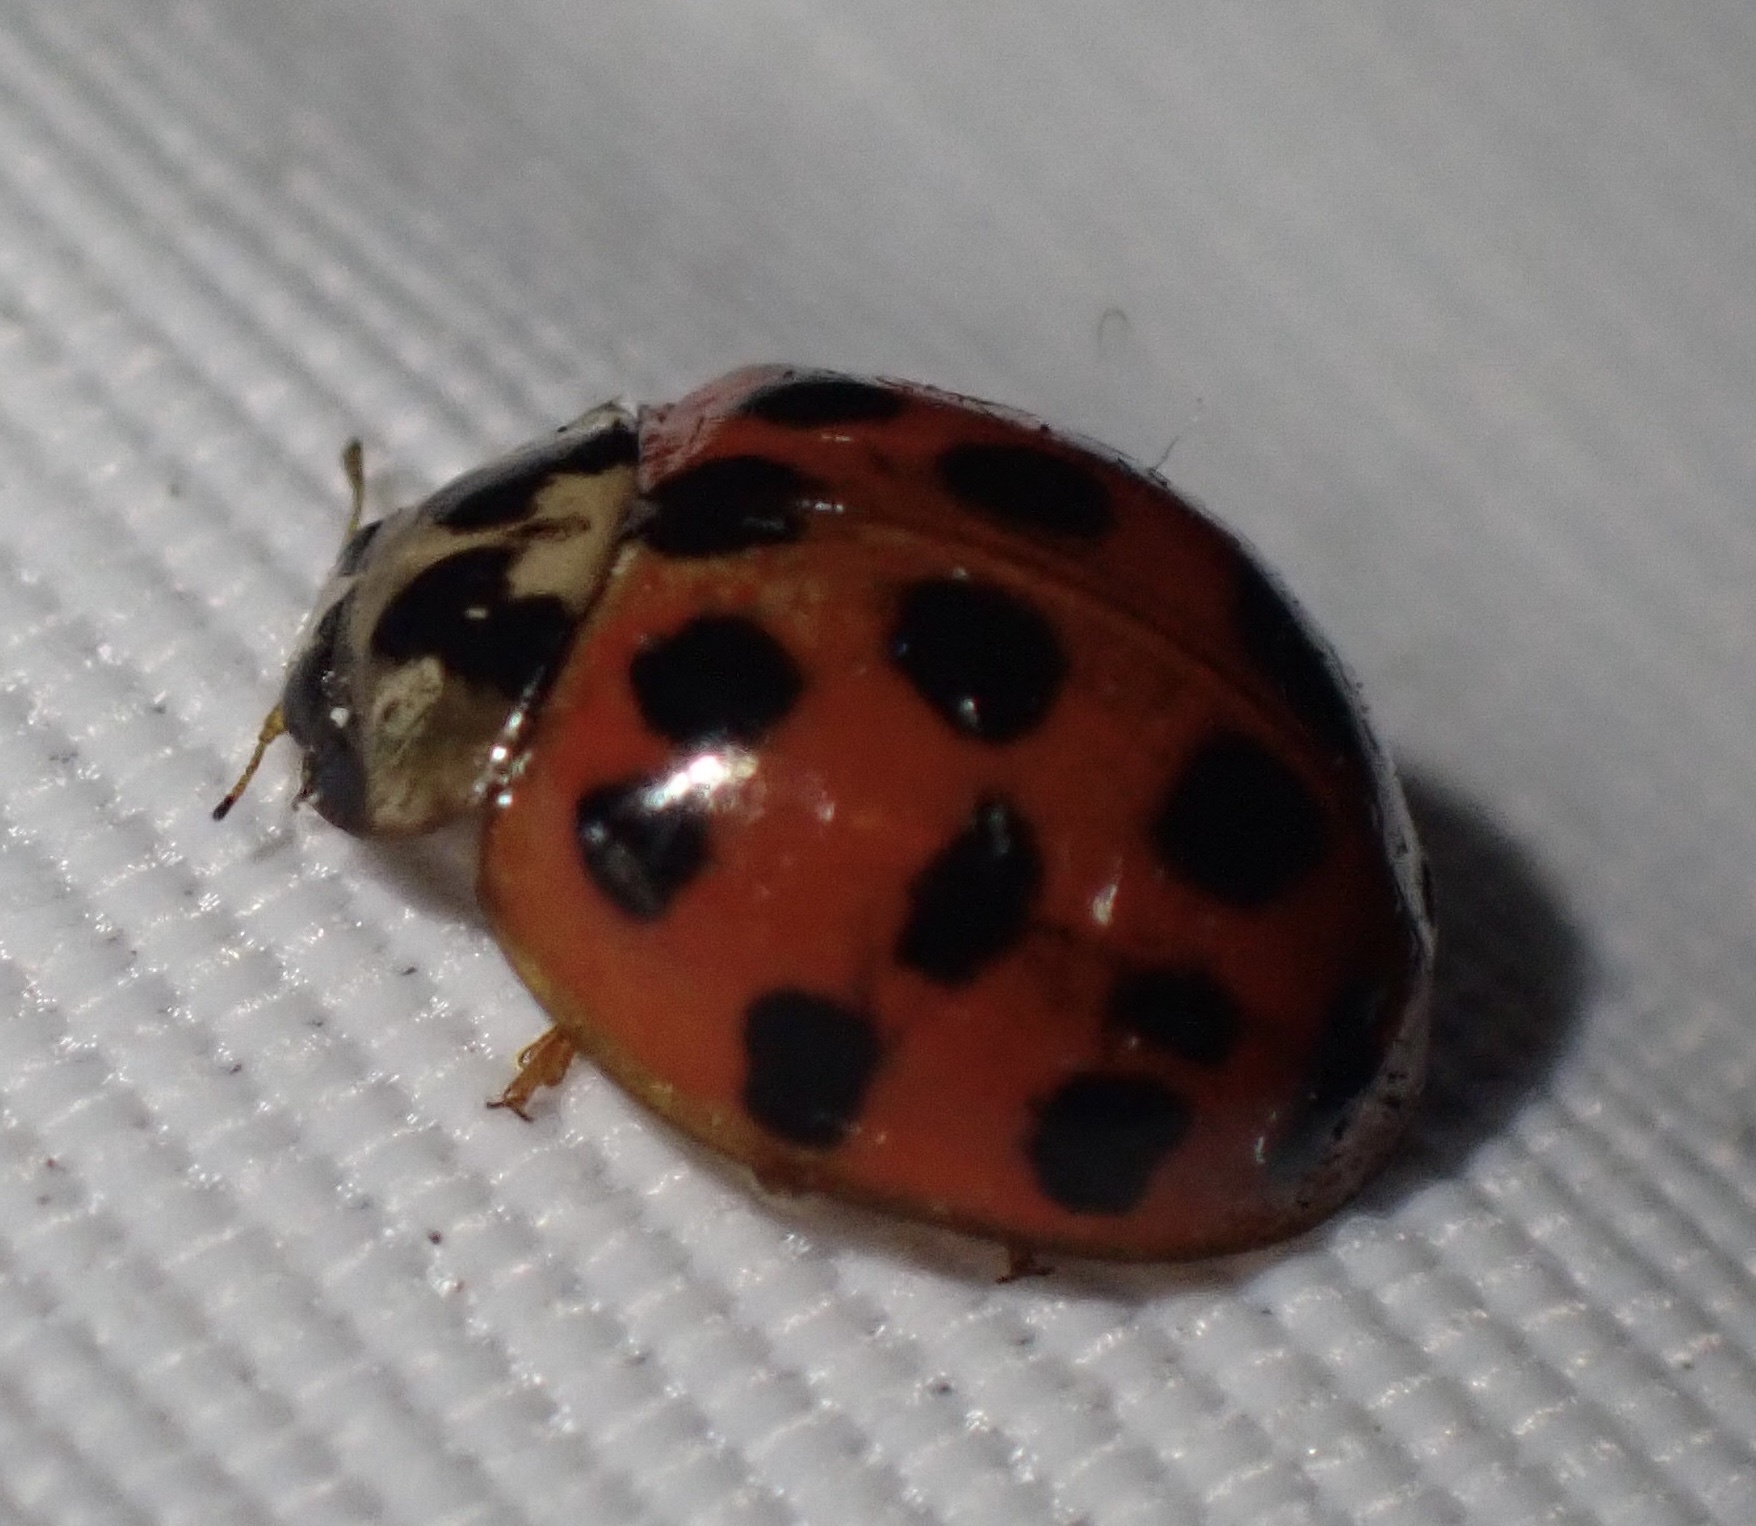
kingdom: Animalia
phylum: Arthropoda
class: Insecta
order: Coleoptera
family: Coccinellidae
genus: Harmonia
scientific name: Harmonia axyridis
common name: Harlequin ladybird
